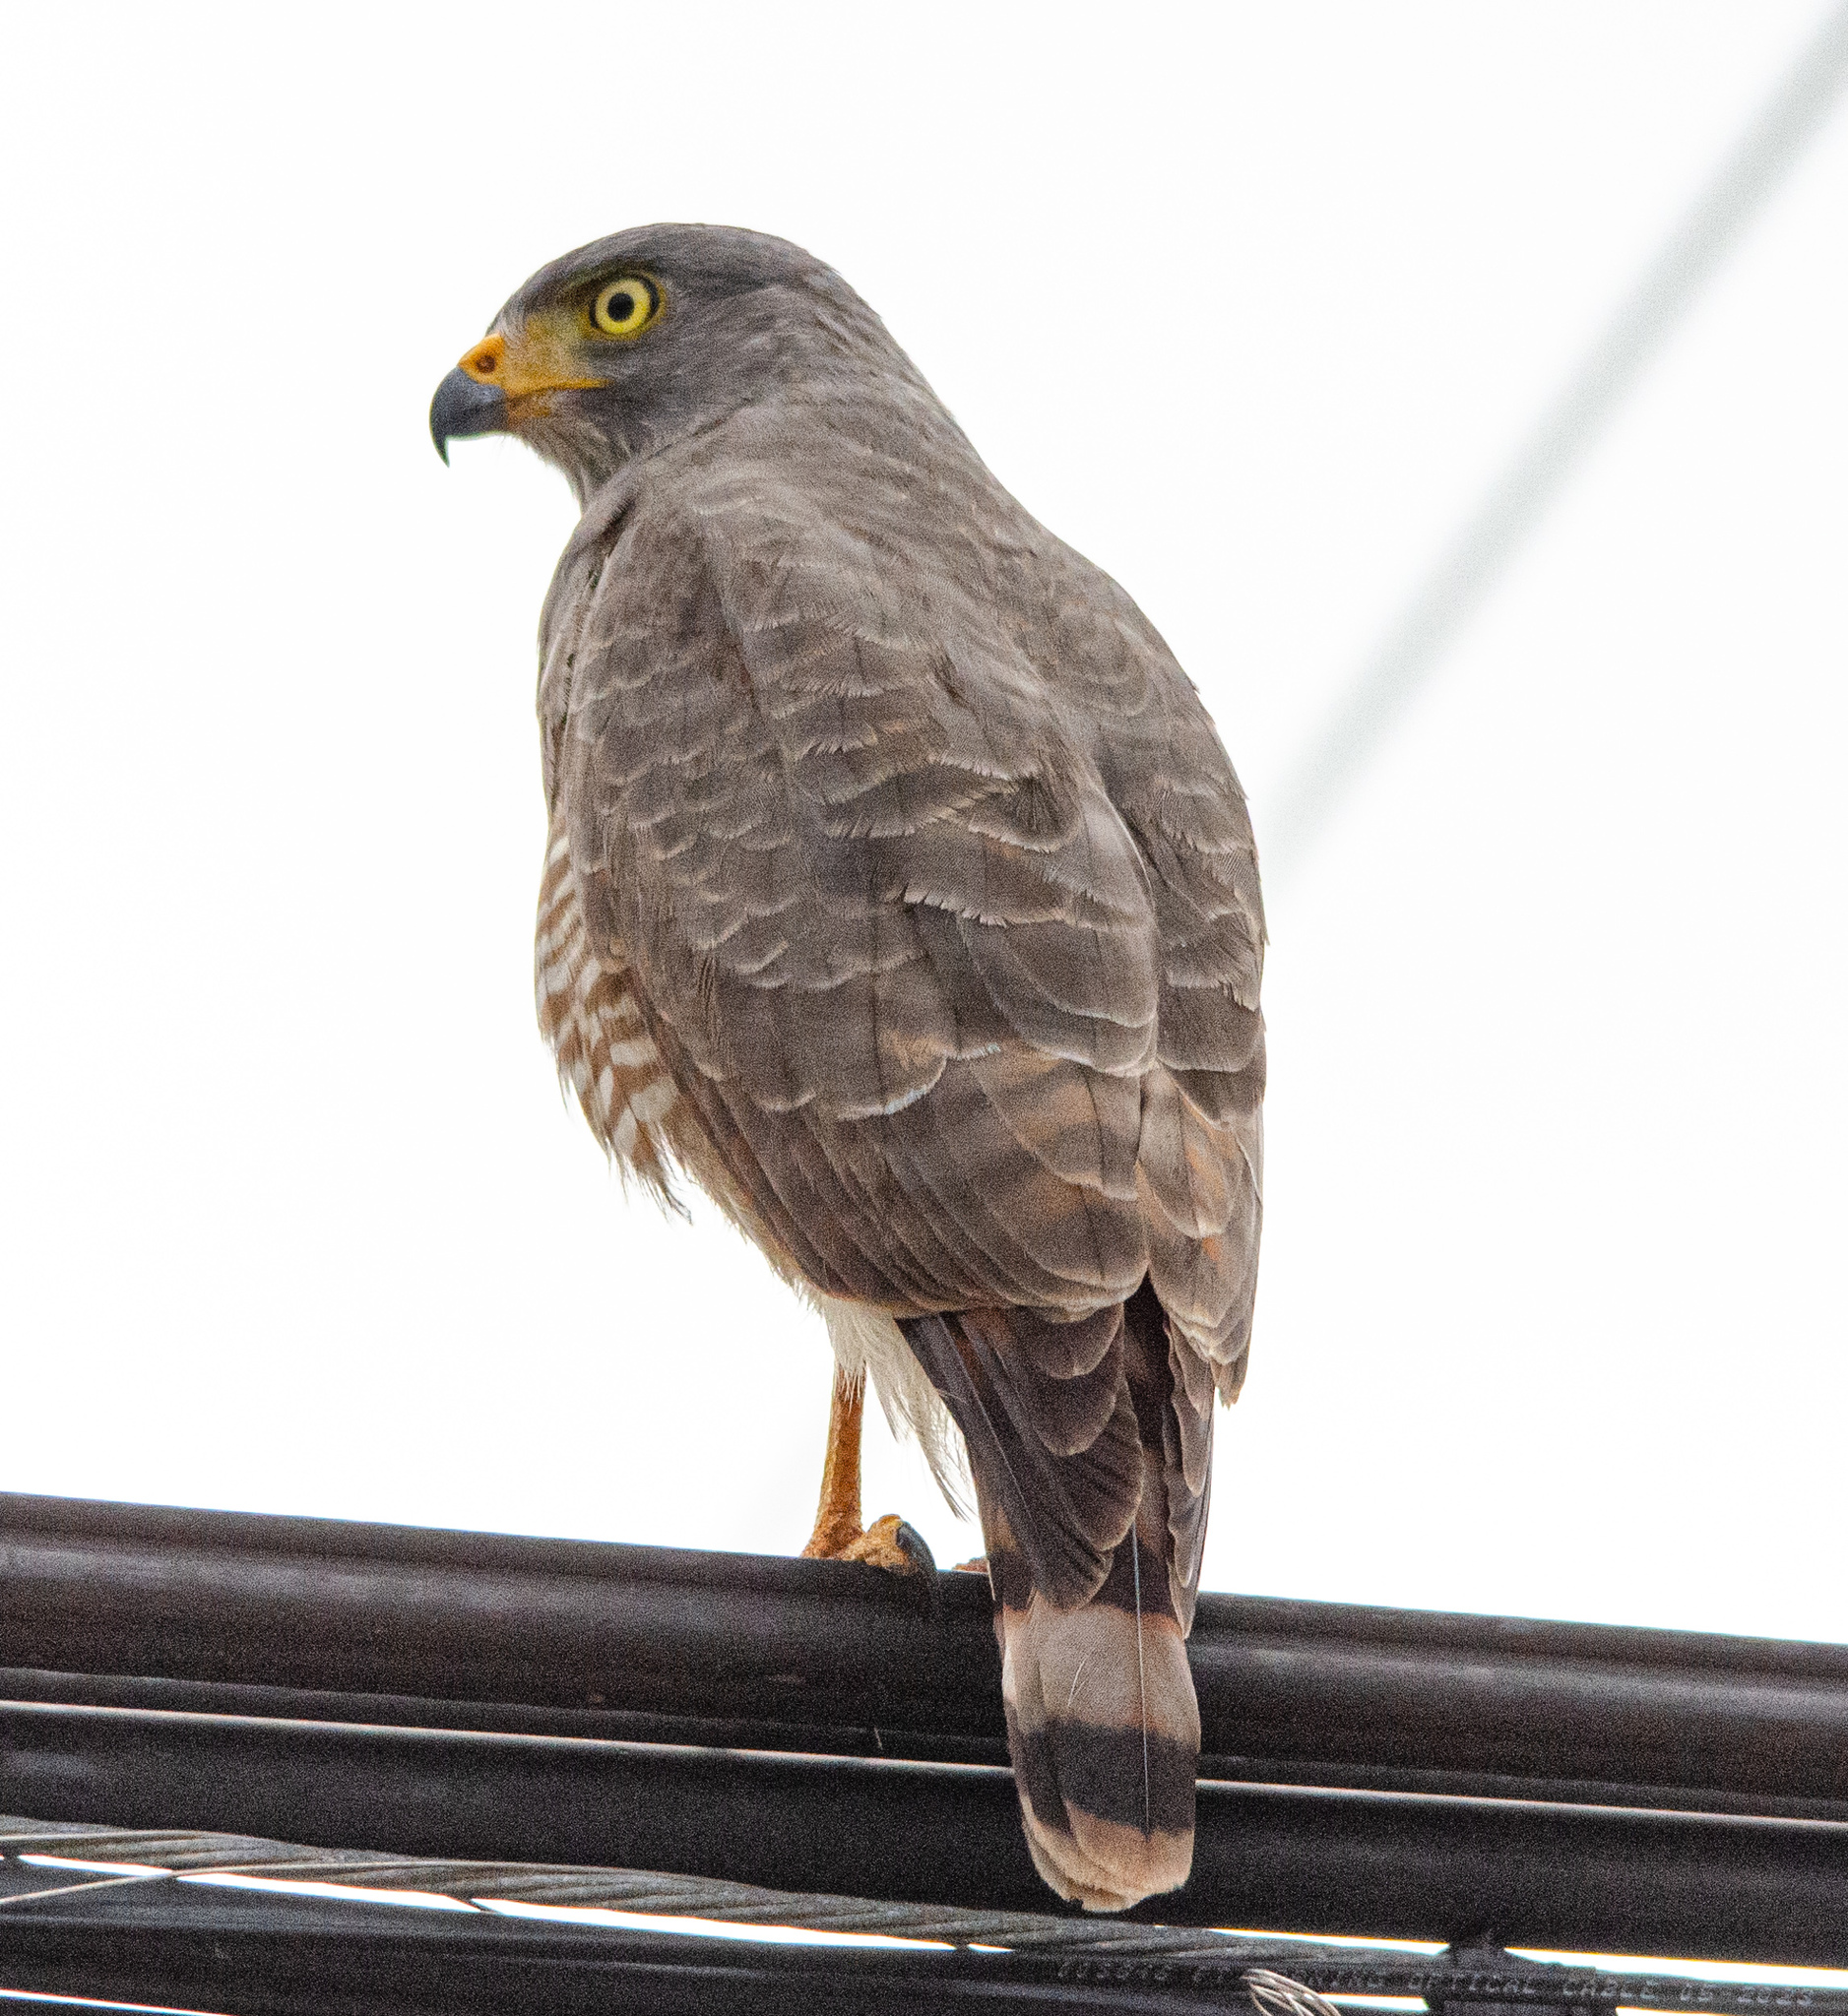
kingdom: Animalia
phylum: Chordata
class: Aves
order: Accipitriformes
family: Accipitridae
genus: Rupornis
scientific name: Rupornis magnirostris
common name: Roadside hawk
